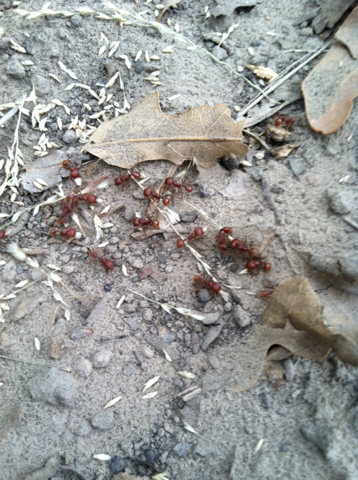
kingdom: Animalia
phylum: Arthropoda
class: Insecta
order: Hymenoptera
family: Formicidae
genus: Pogonomyrmex
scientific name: Pogonomyrmex barbatus
